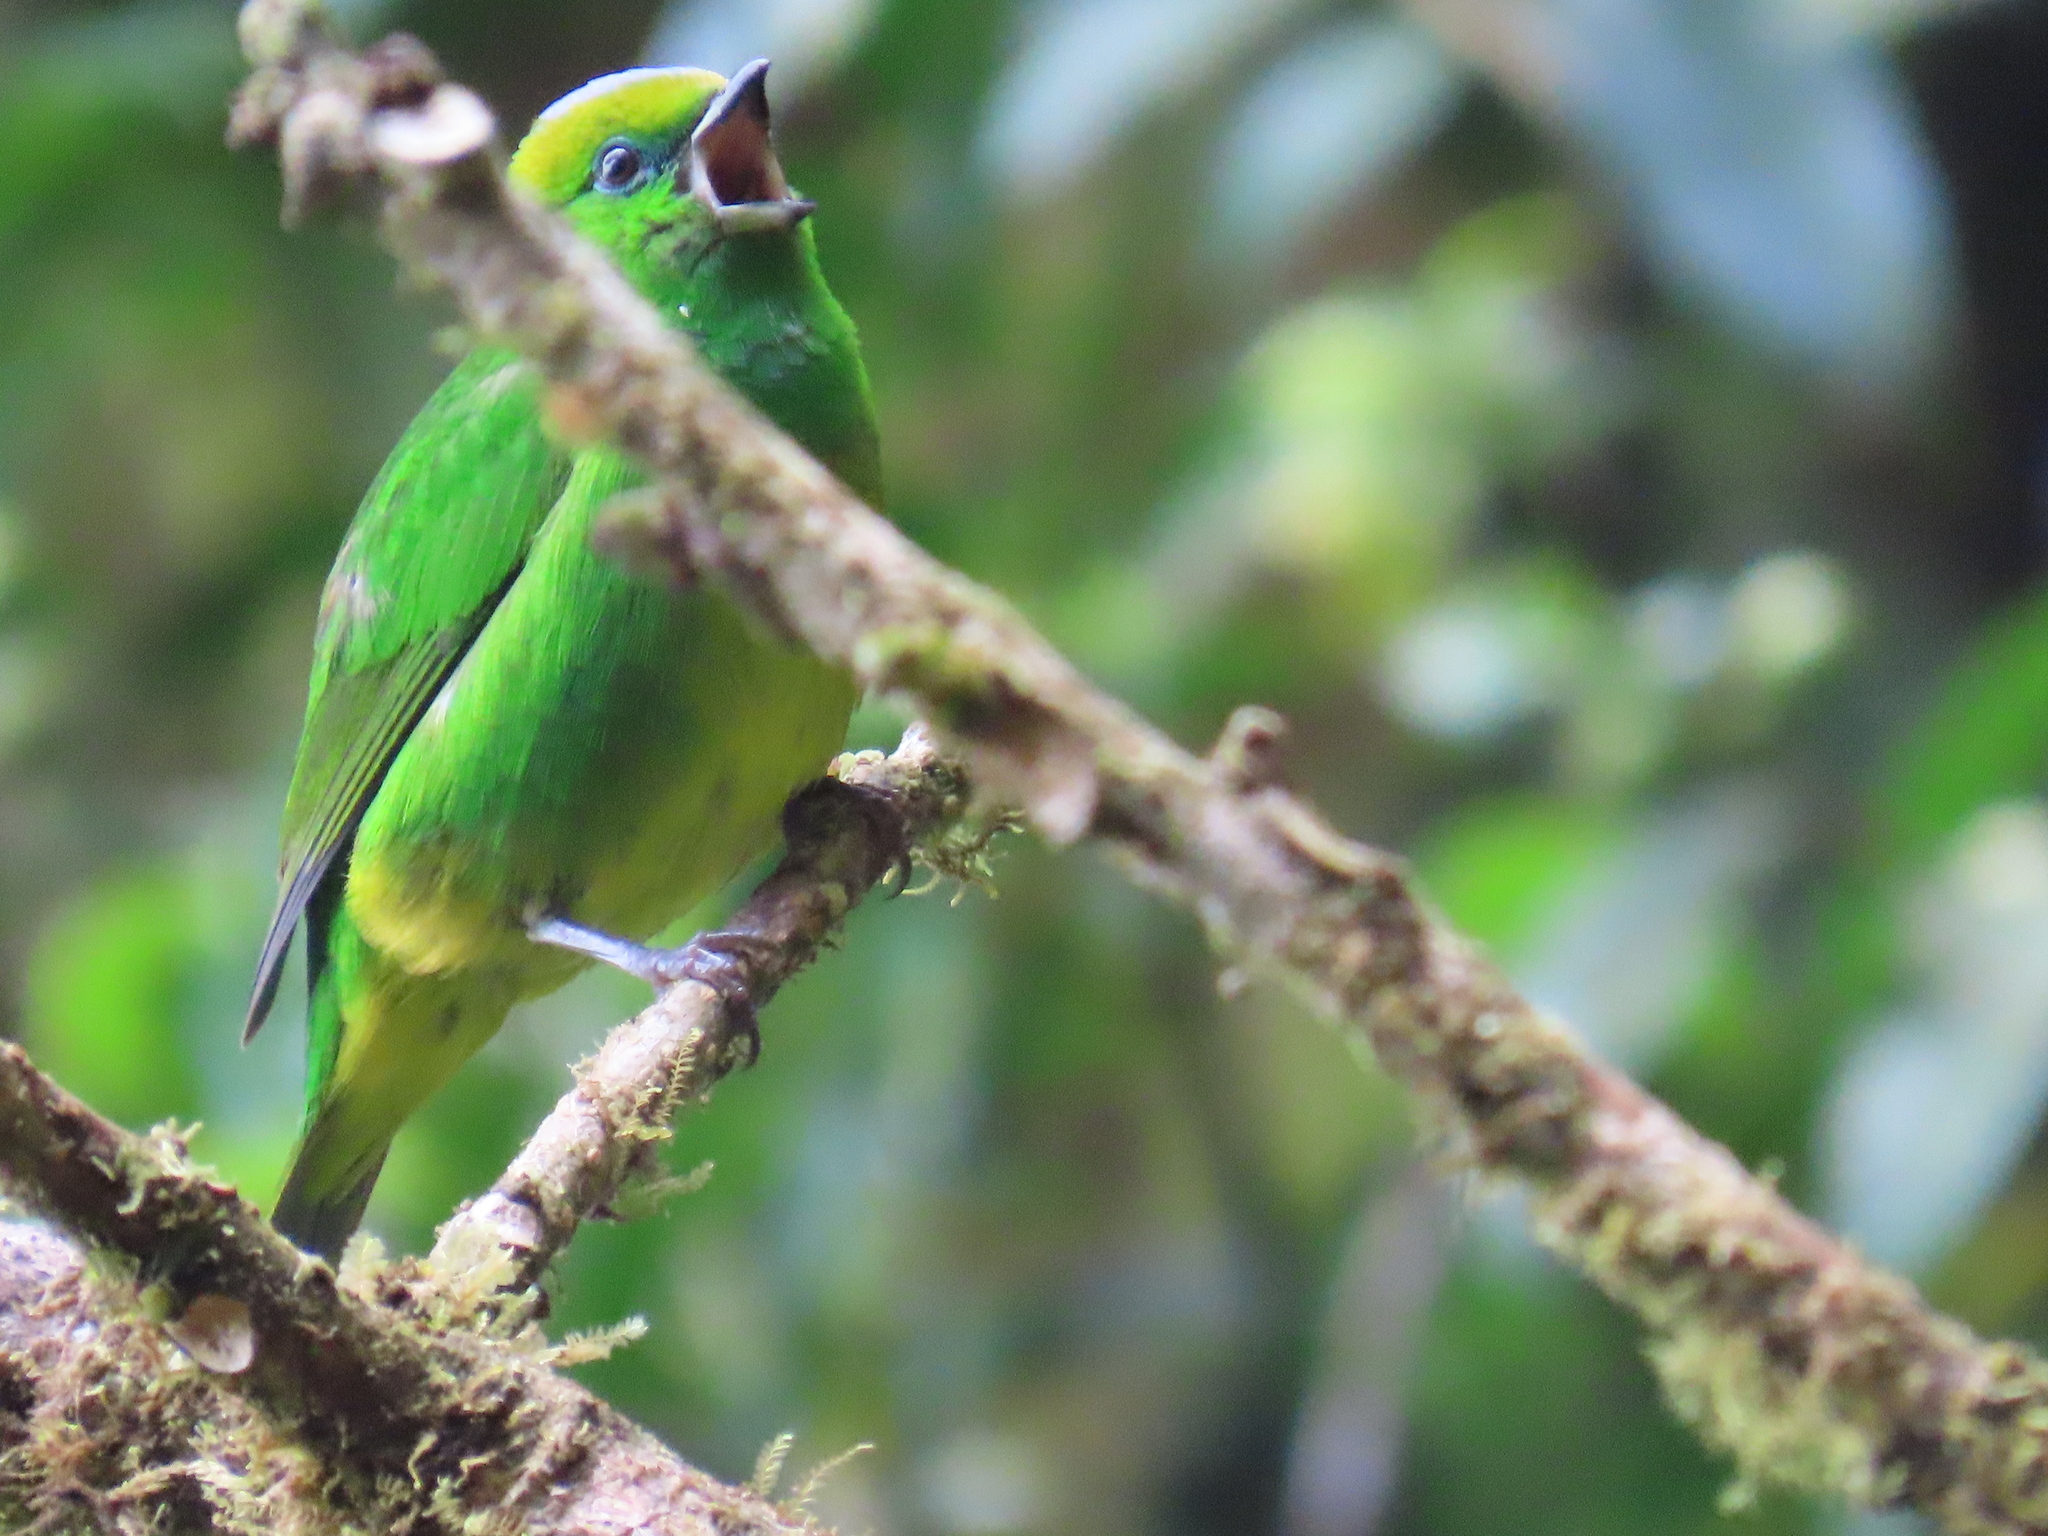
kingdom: Animalia
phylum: Chordata
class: Aves
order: Passeriformes
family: Fringillidae
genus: Chlorophonia
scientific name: Chlorophonia callophrys
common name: Golden-browed chlorophonia
